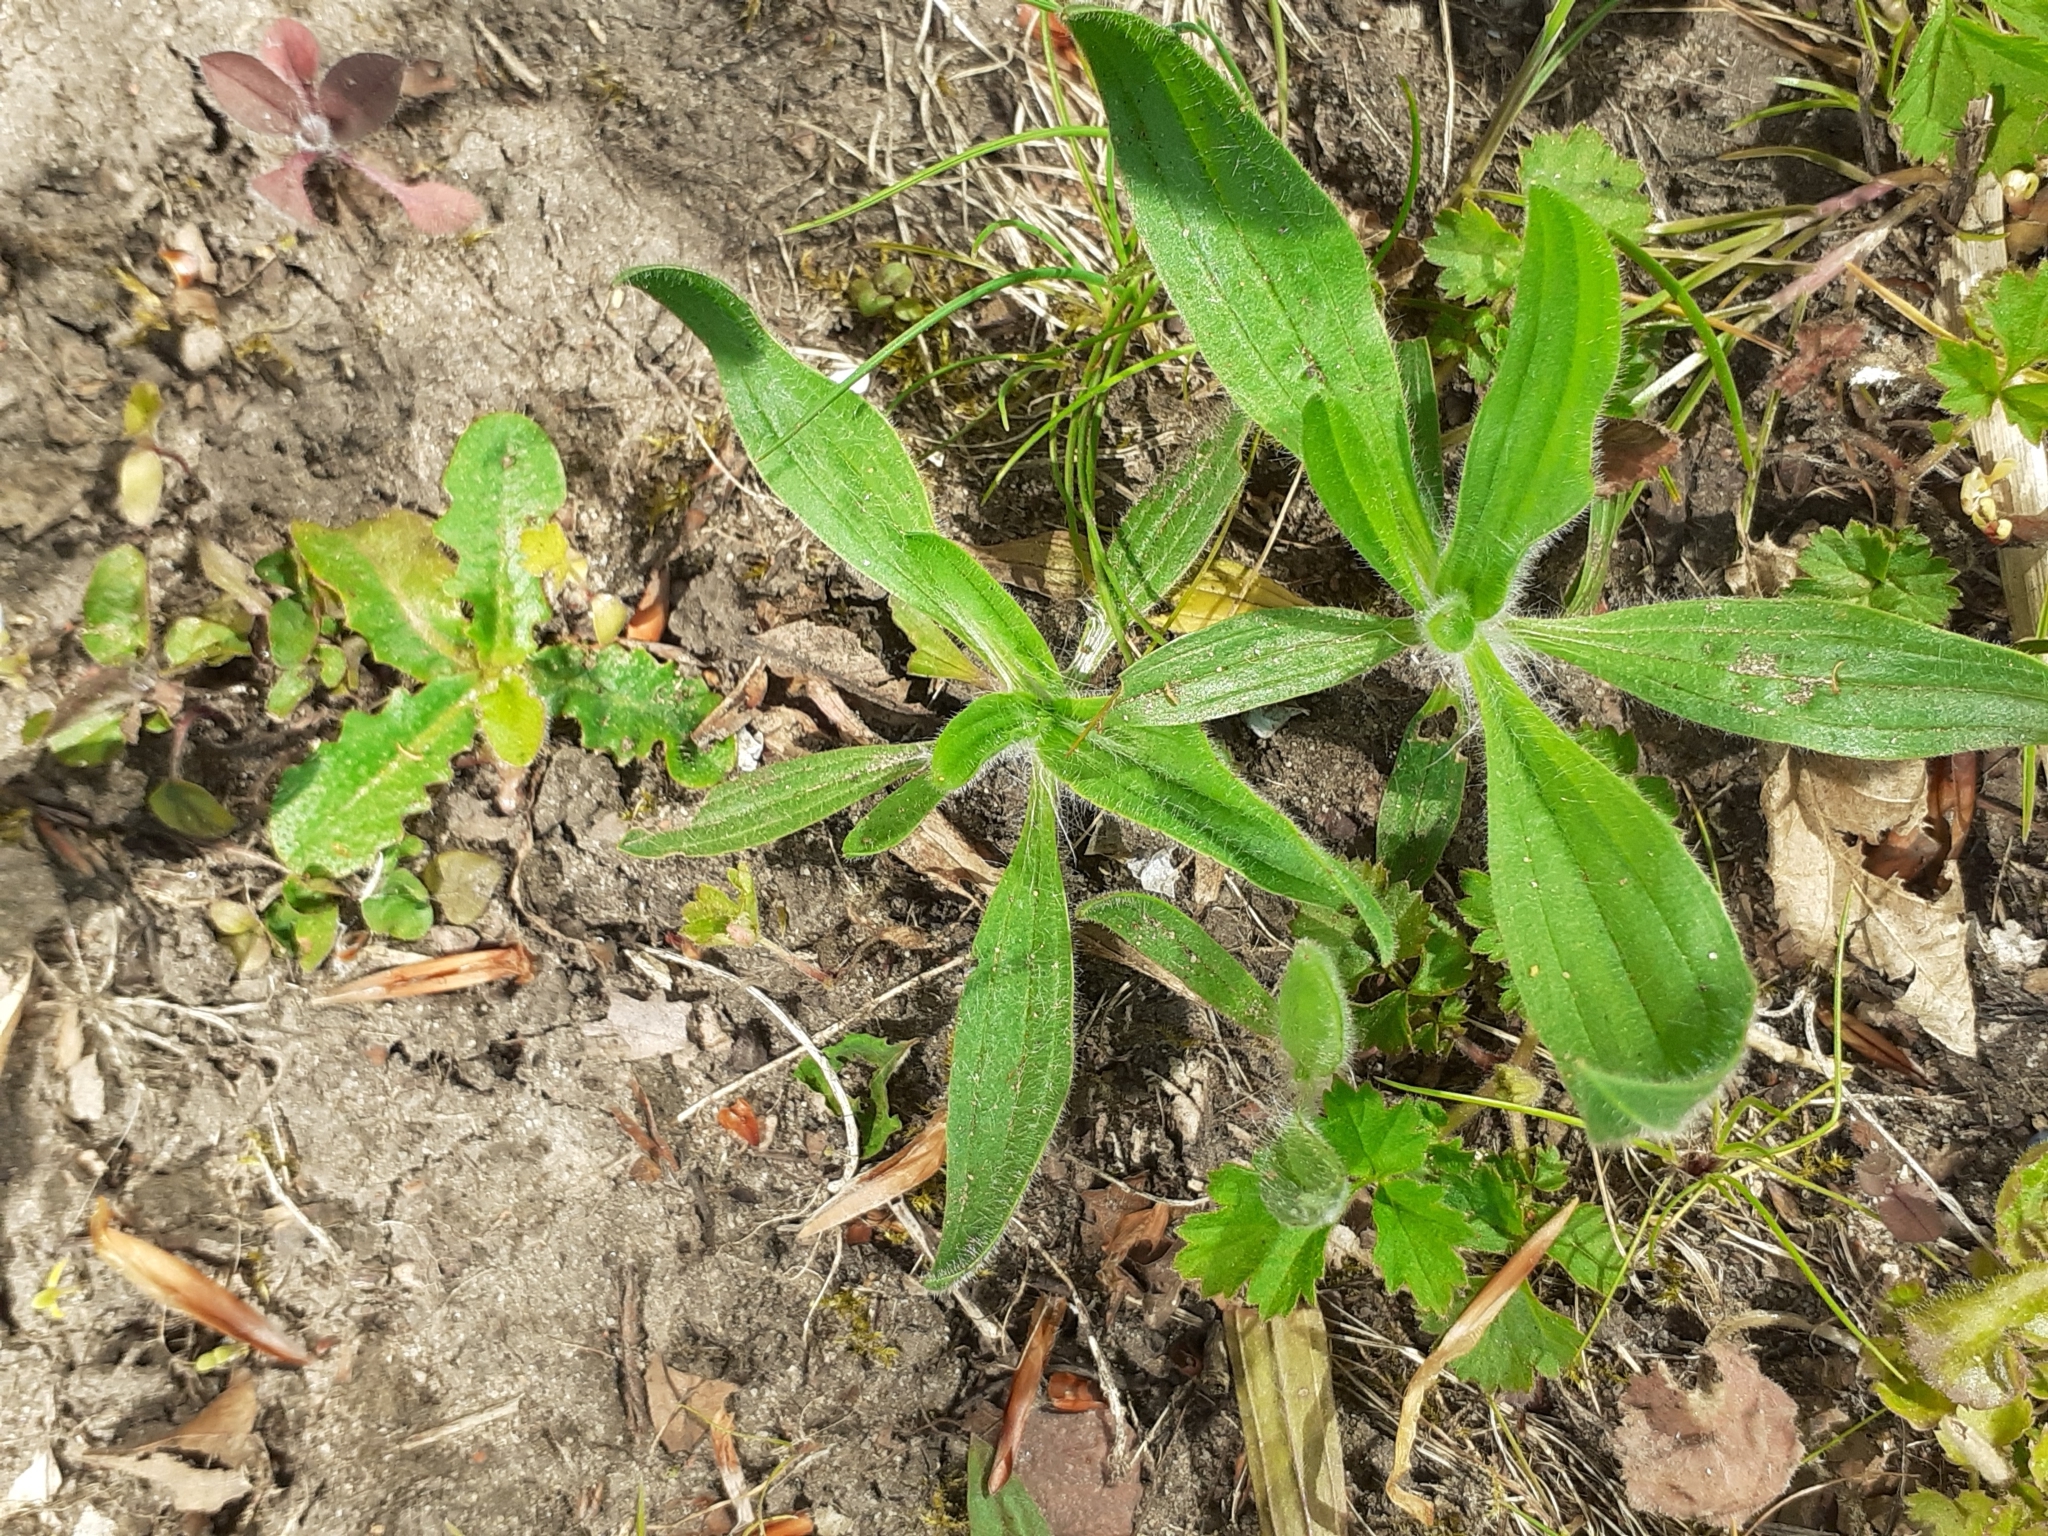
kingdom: Plantae
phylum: Tracheophyta
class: Magnoliopsida
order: Lamiales
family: Plantaginaceae
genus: Plantago
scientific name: Plantago lanceolata
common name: Ribwort plantain
